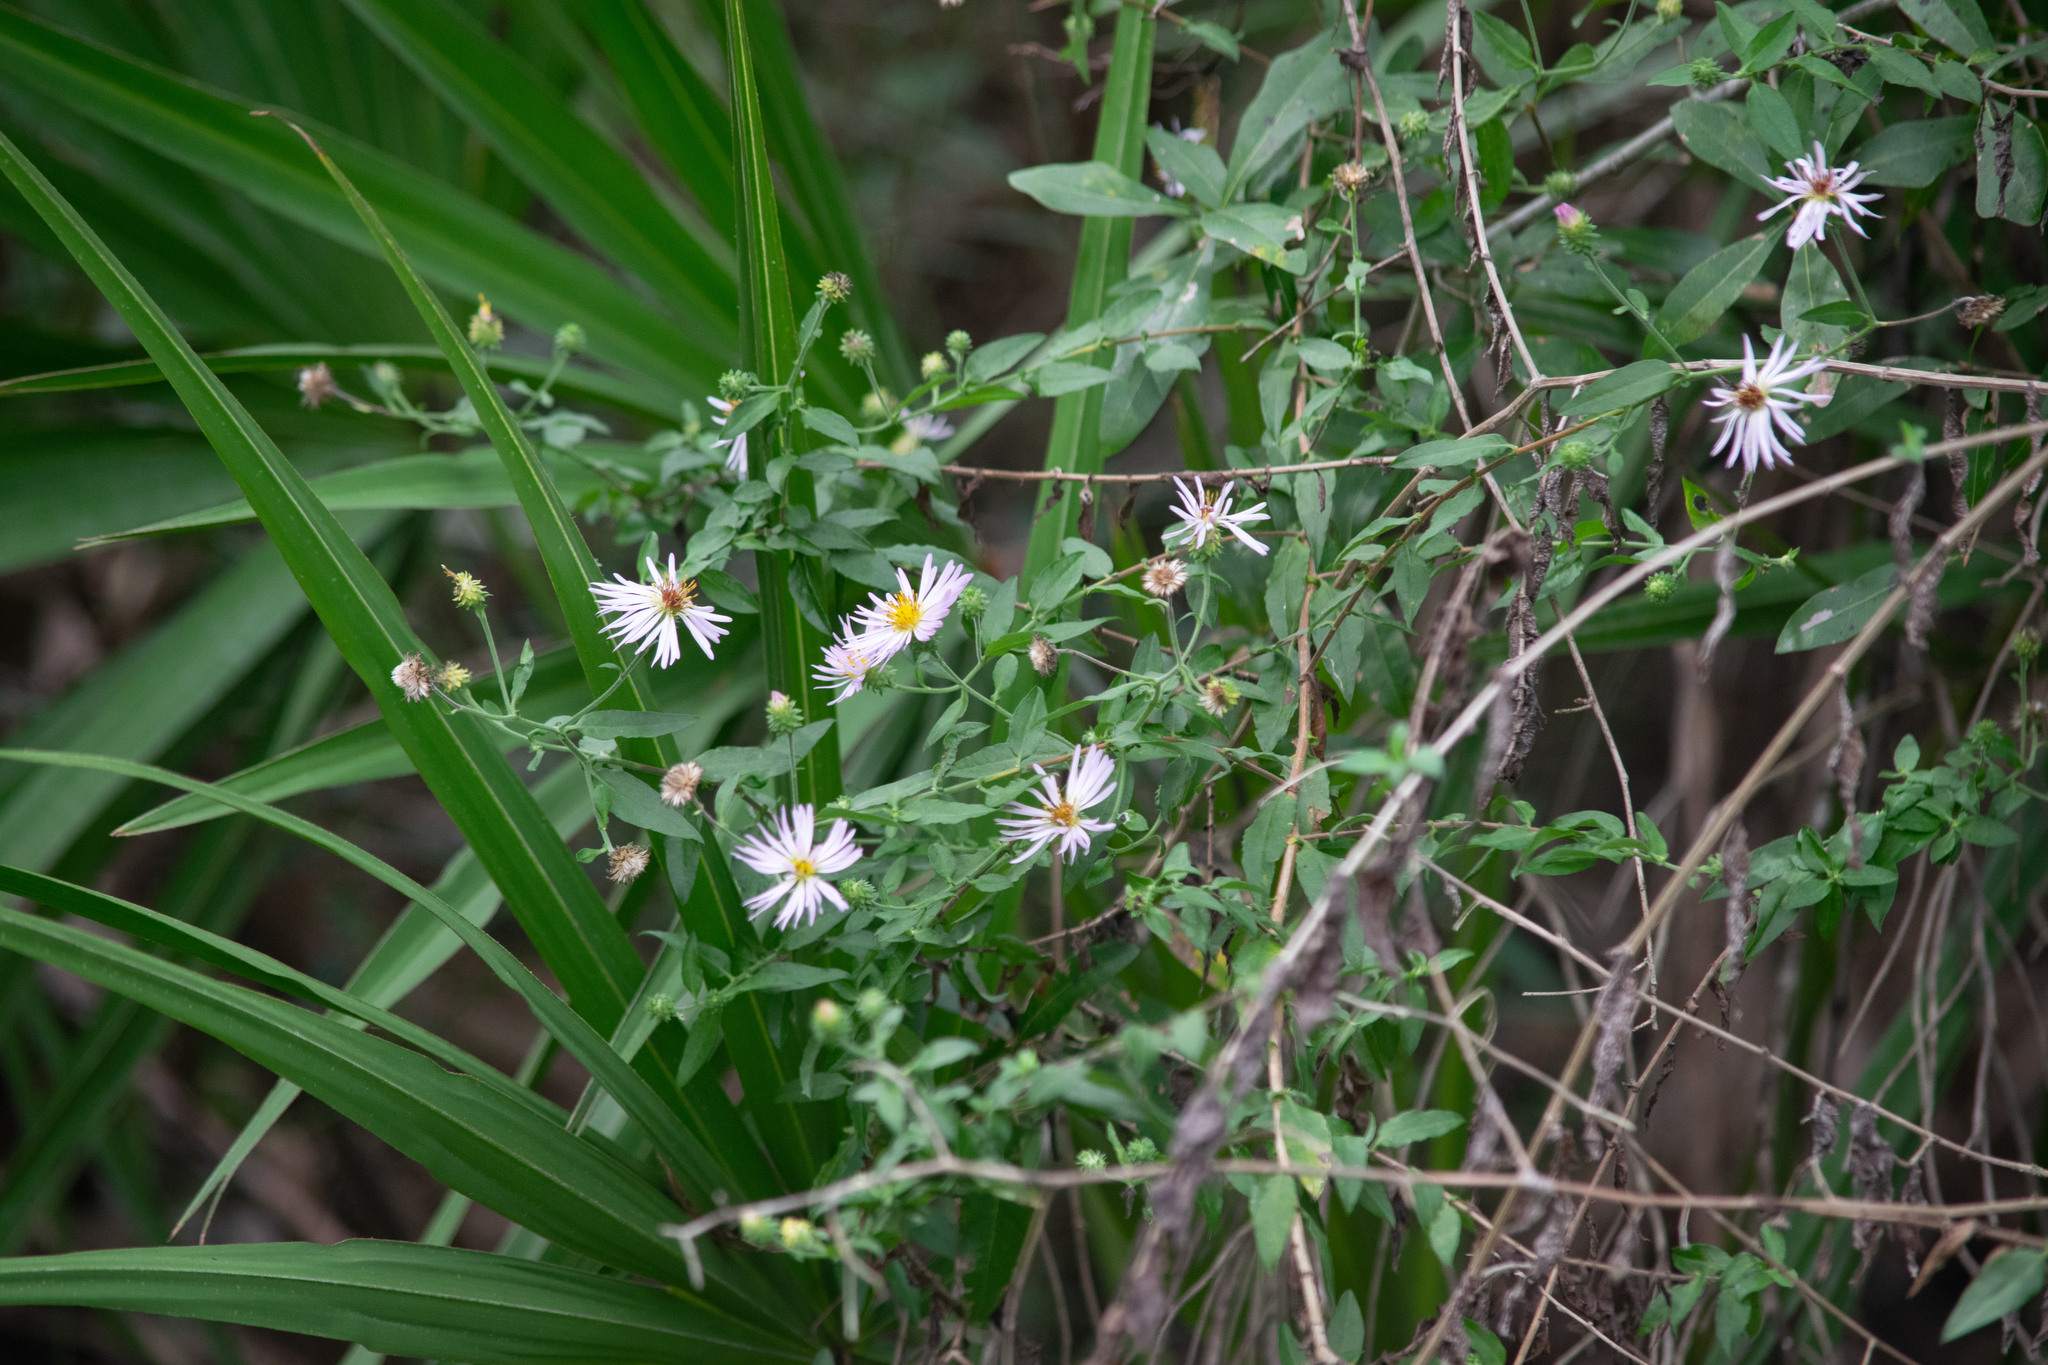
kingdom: Plantae
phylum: Tracheophyta
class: Magnoliopsida
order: Asterales
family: Asteraceae
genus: Ampelaster
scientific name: Ampelaster carolinianus
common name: Climbing aster
